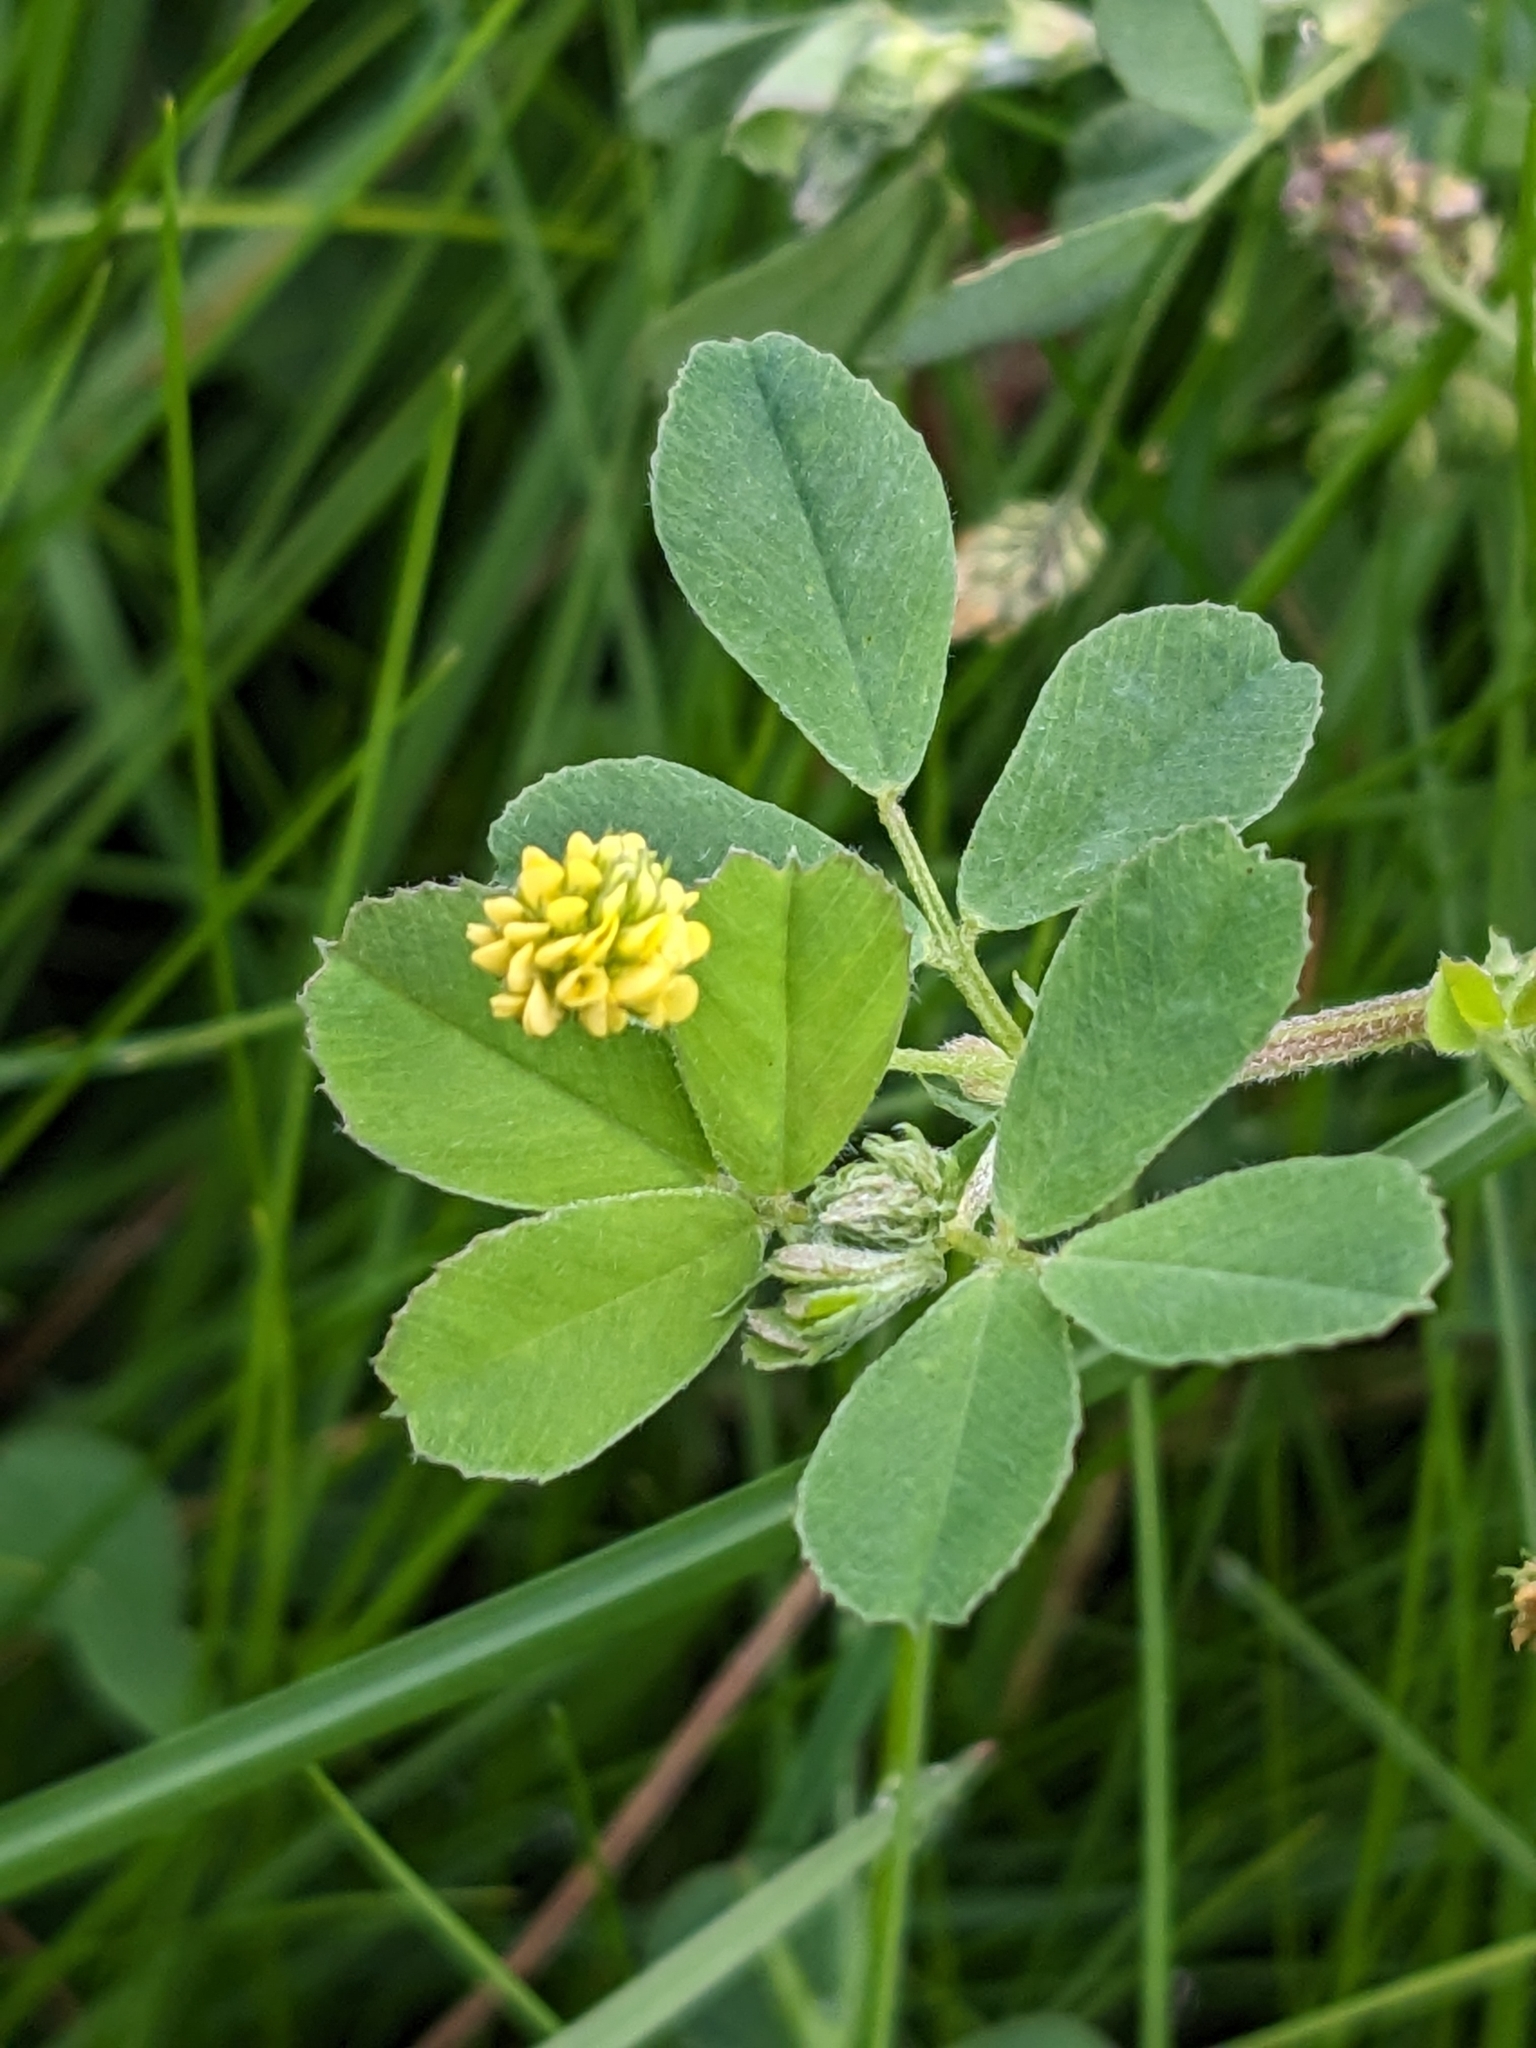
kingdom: Plantae
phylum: Tracheophyta
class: Magnoliopsida
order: Fabales
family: Fabaceae
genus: Medicago
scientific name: Medicago lupulina
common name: Black medick
